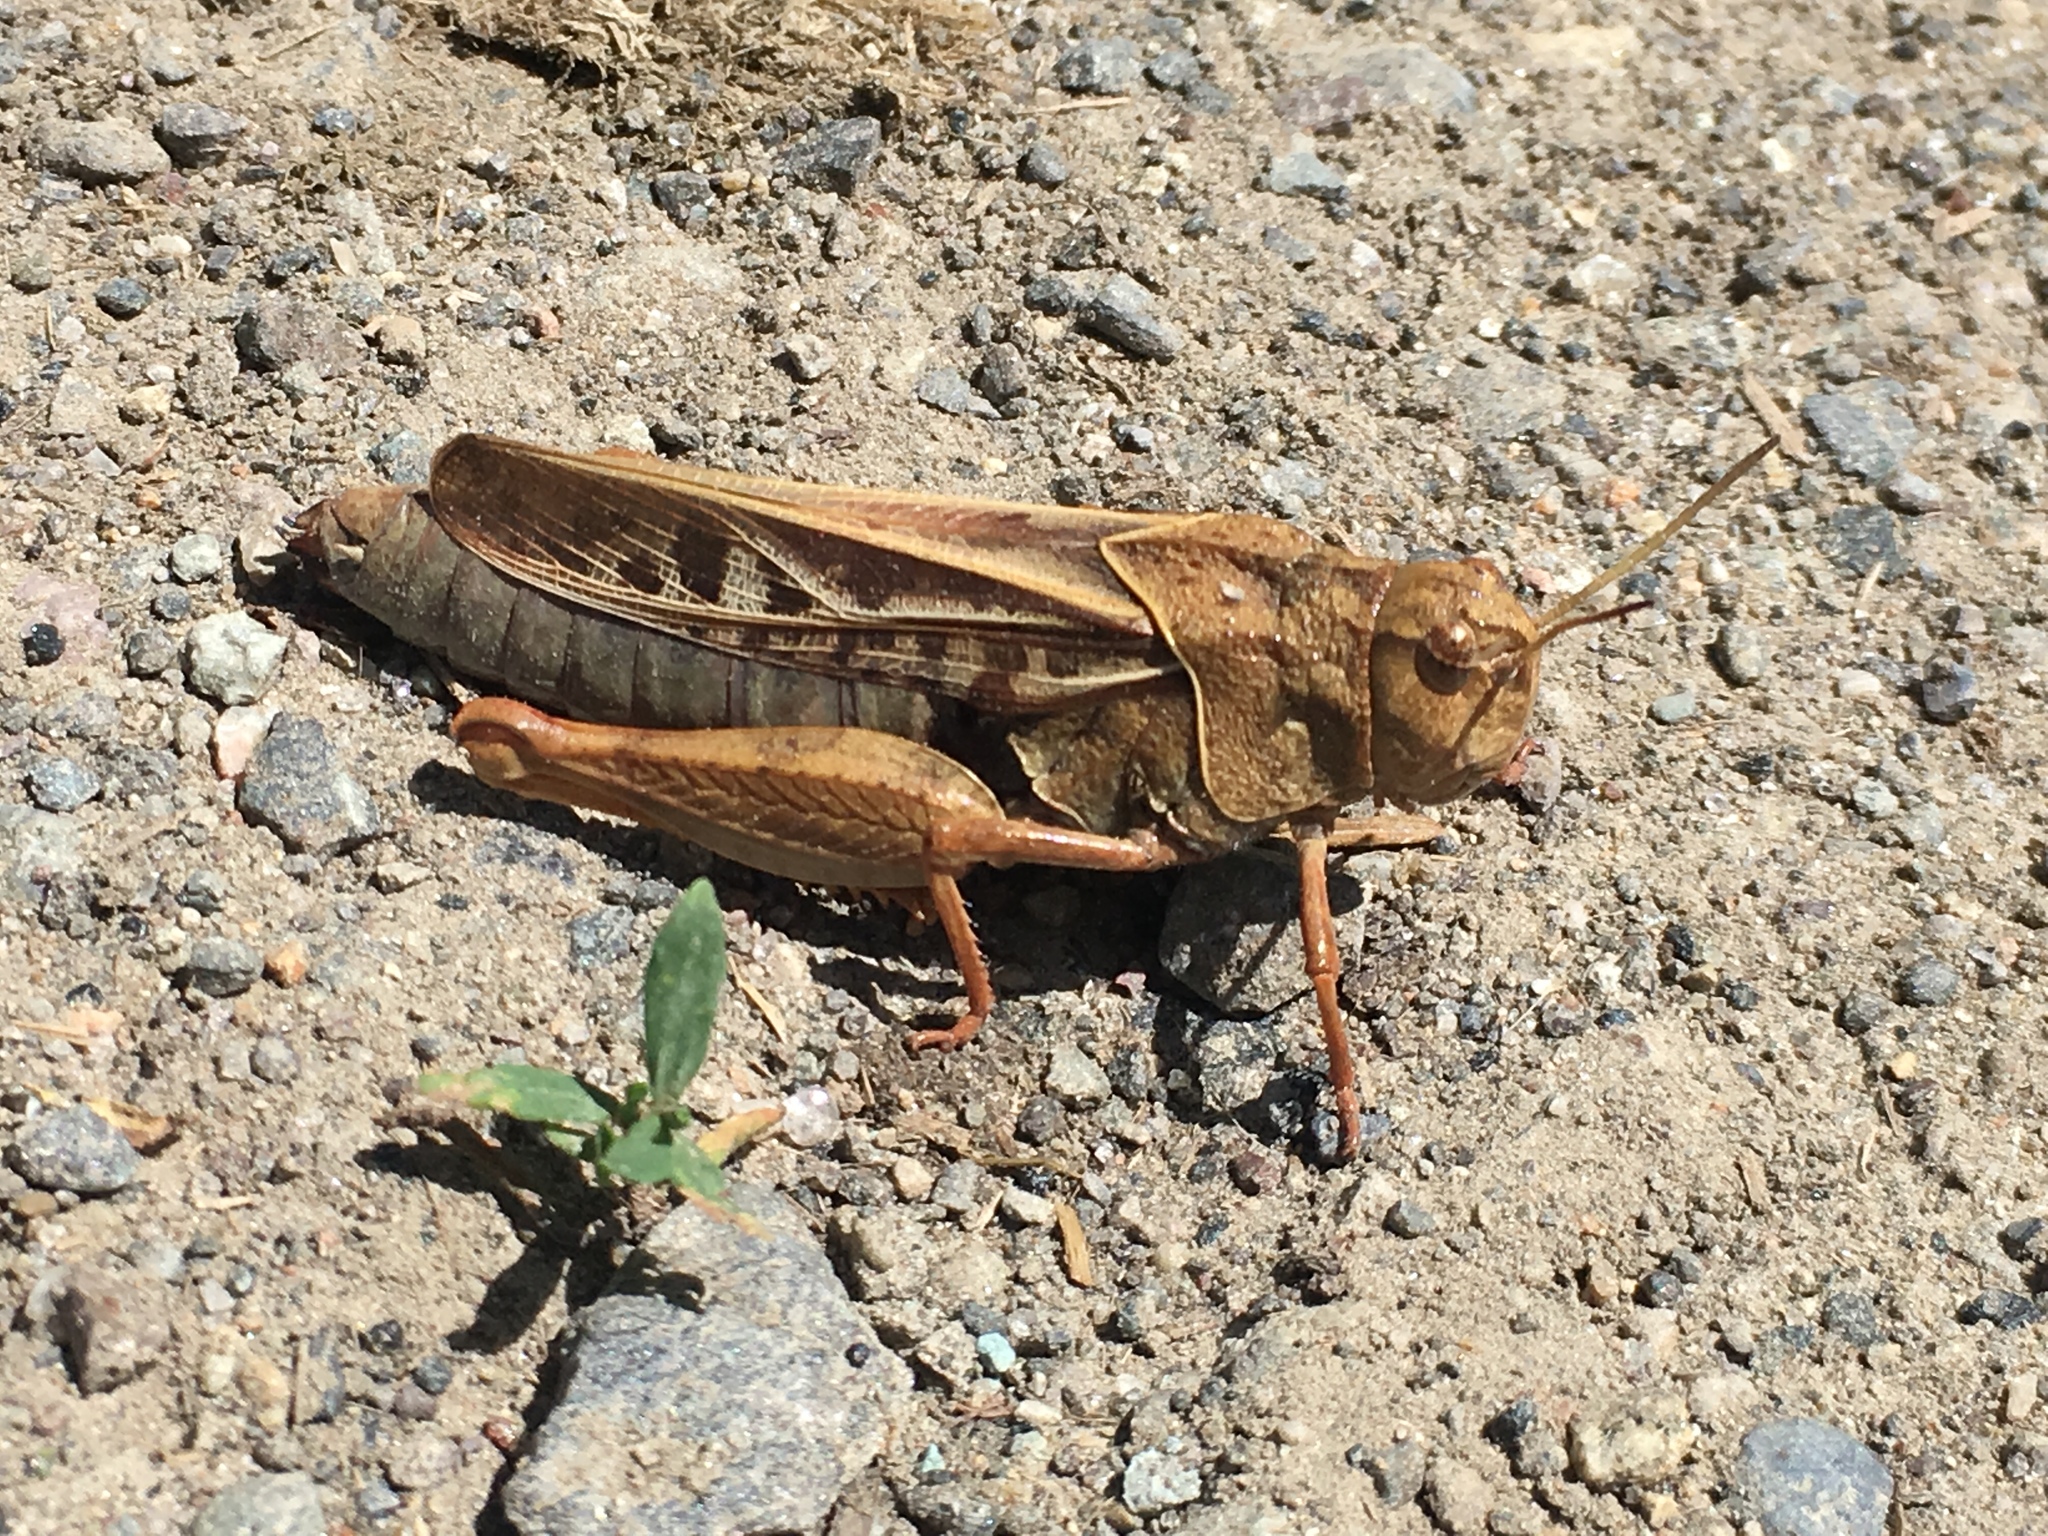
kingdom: Animalia
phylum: Arthropoda
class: Insecta
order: Orthoptera
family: Acrididae
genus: Pardalophora
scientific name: Pardalophora apiculata
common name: Coral-winged locust
